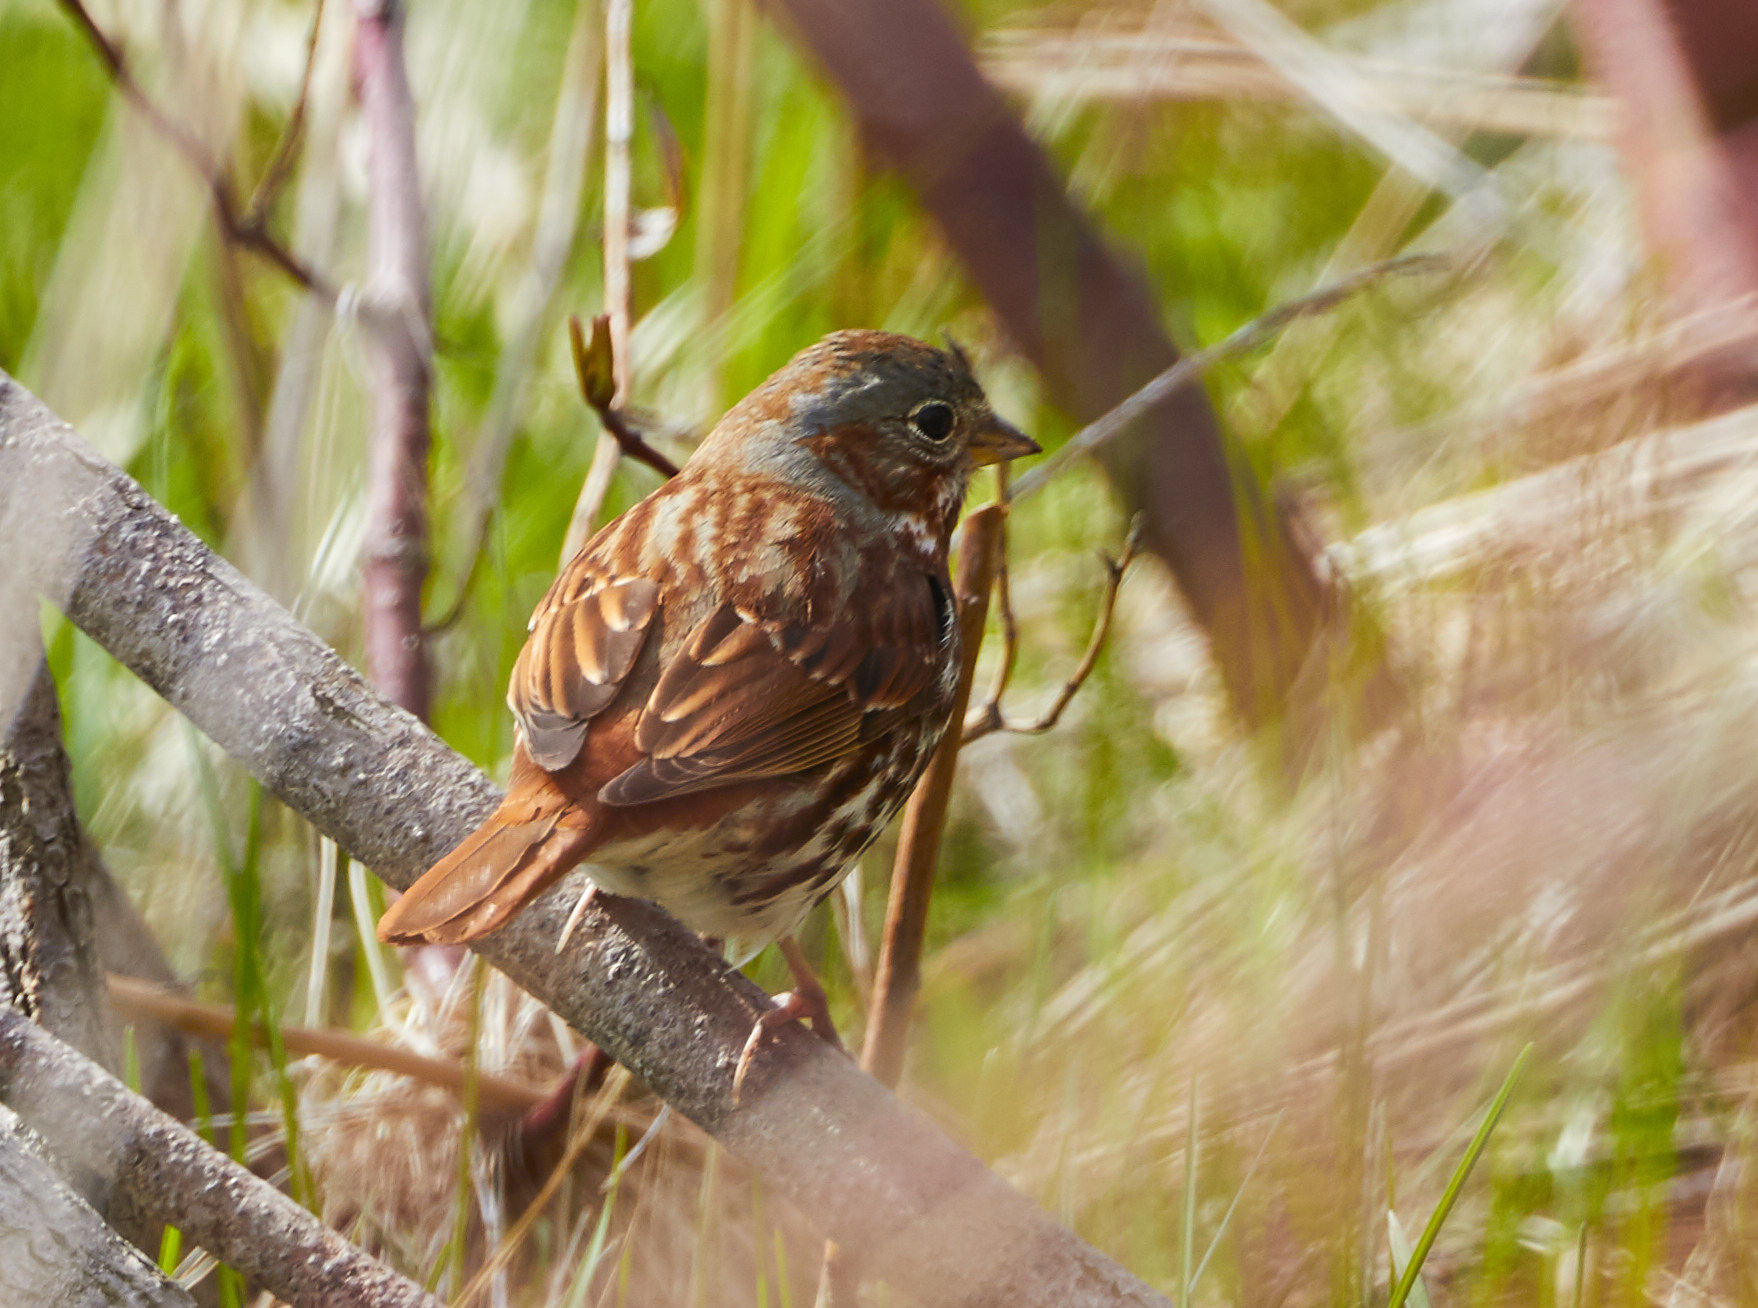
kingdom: Animalia
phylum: Chordata
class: Aves
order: Passeriformes
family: Passerellidae
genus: Passerella
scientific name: Passerella iliaca
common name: Fox sparrow
